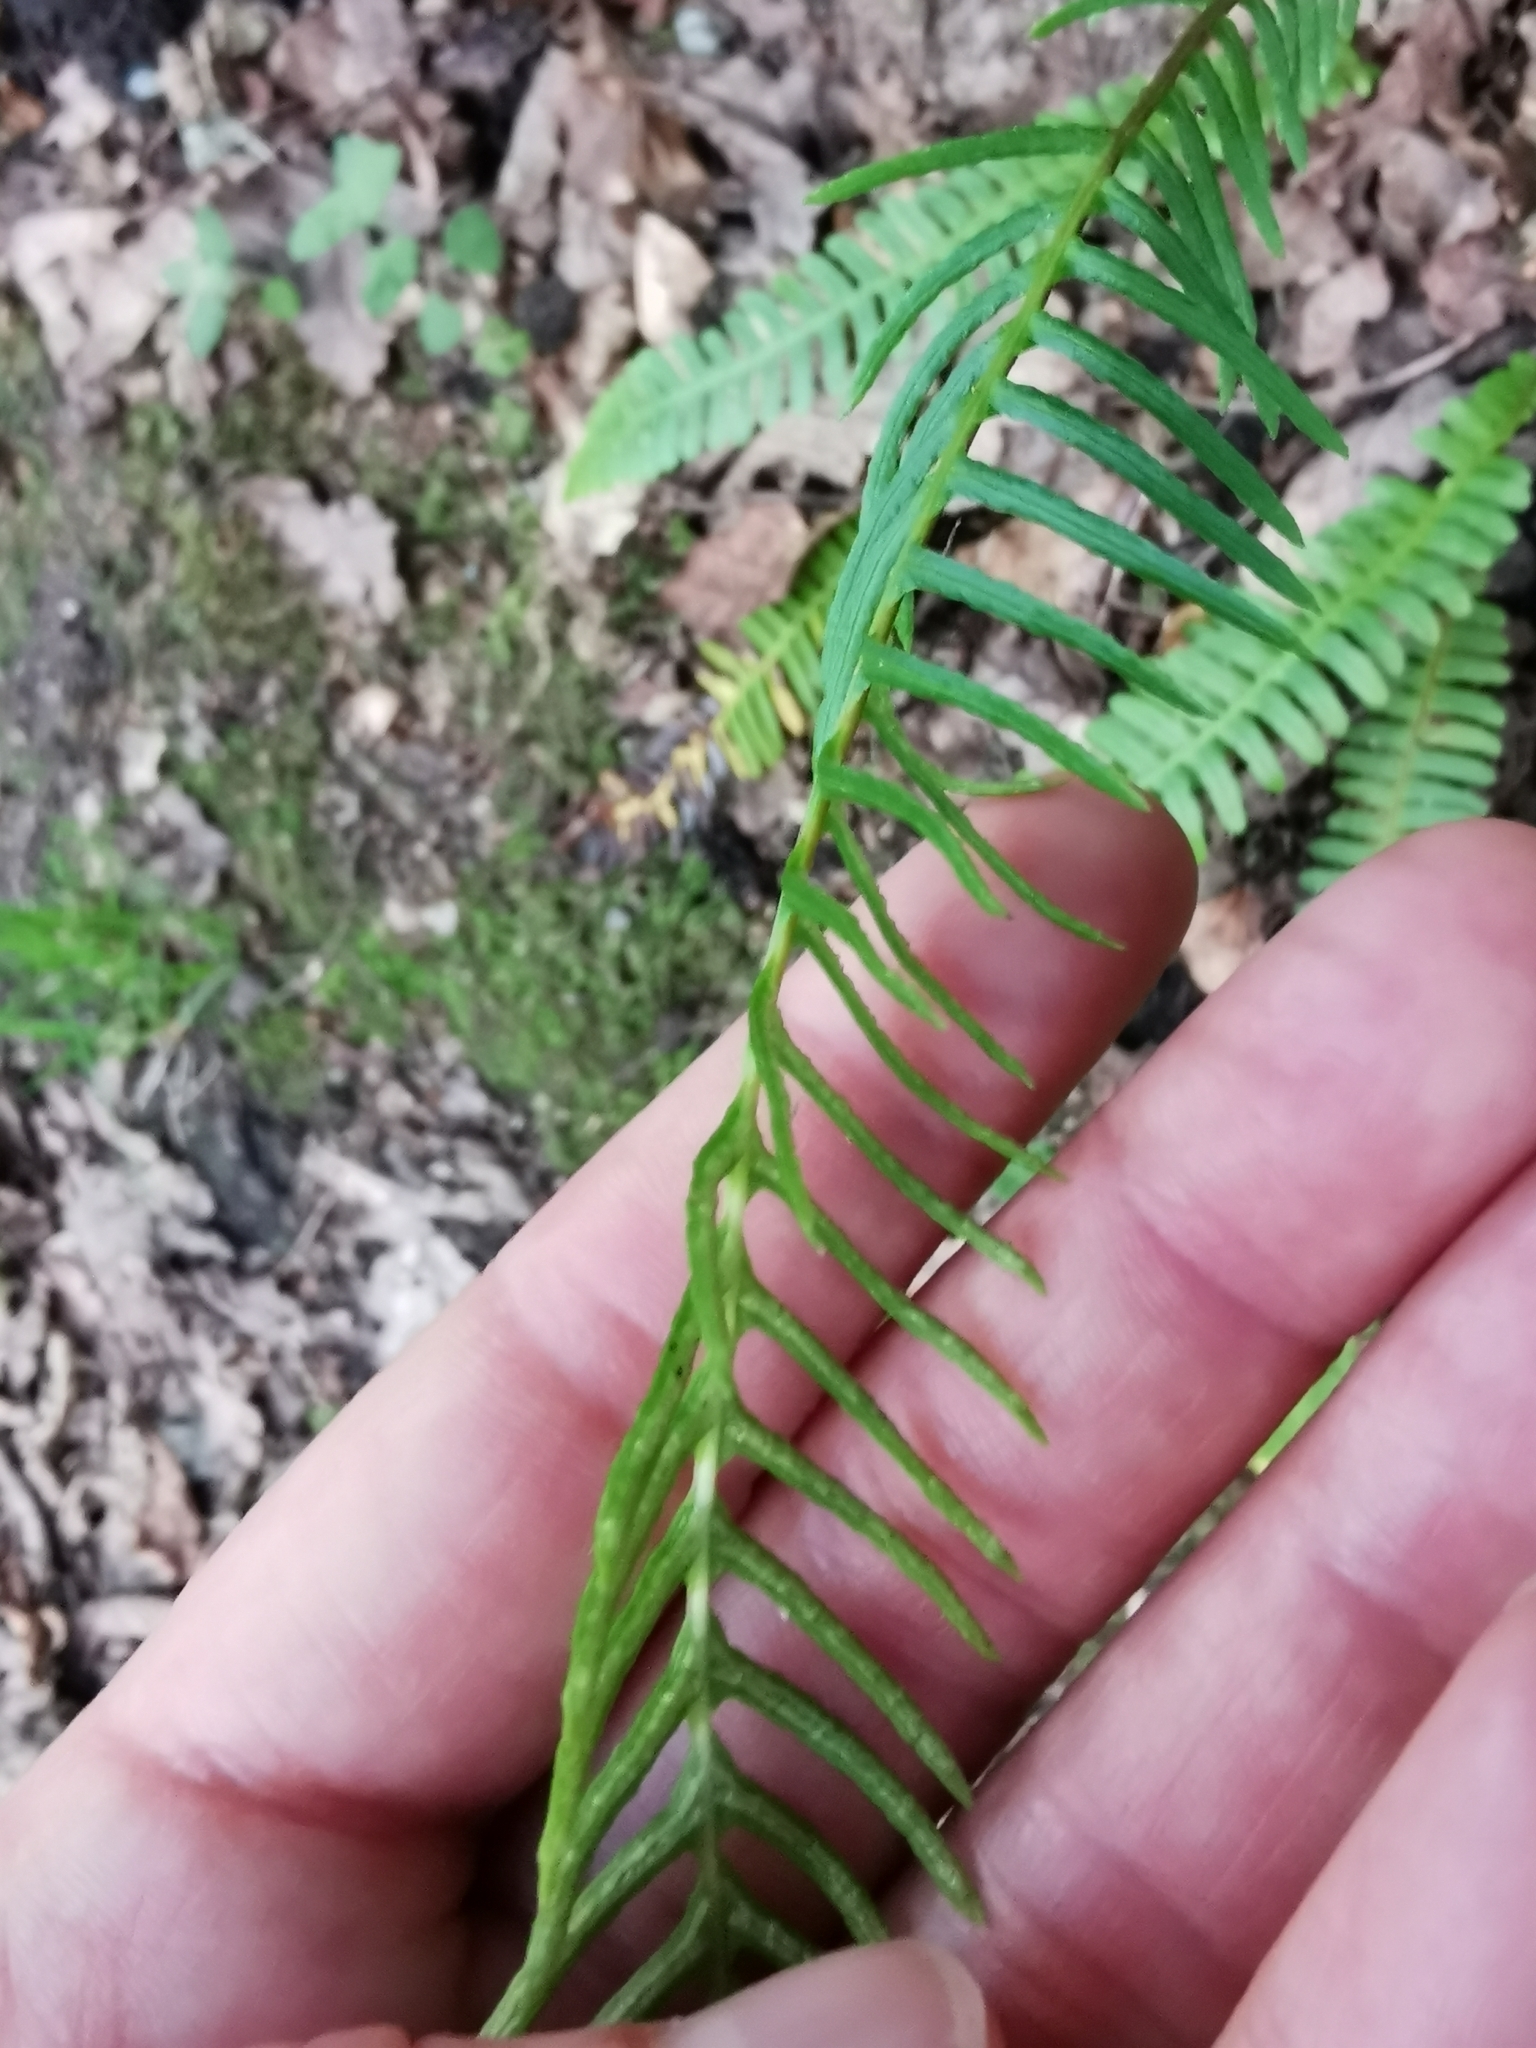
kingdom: Plantae
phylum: Tracheophyta
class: Polypodiopsida
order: Polypodiales
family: Blechnaceae
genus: Struthiopteris
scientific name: Struthiopteris spicant
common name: Deer fern
